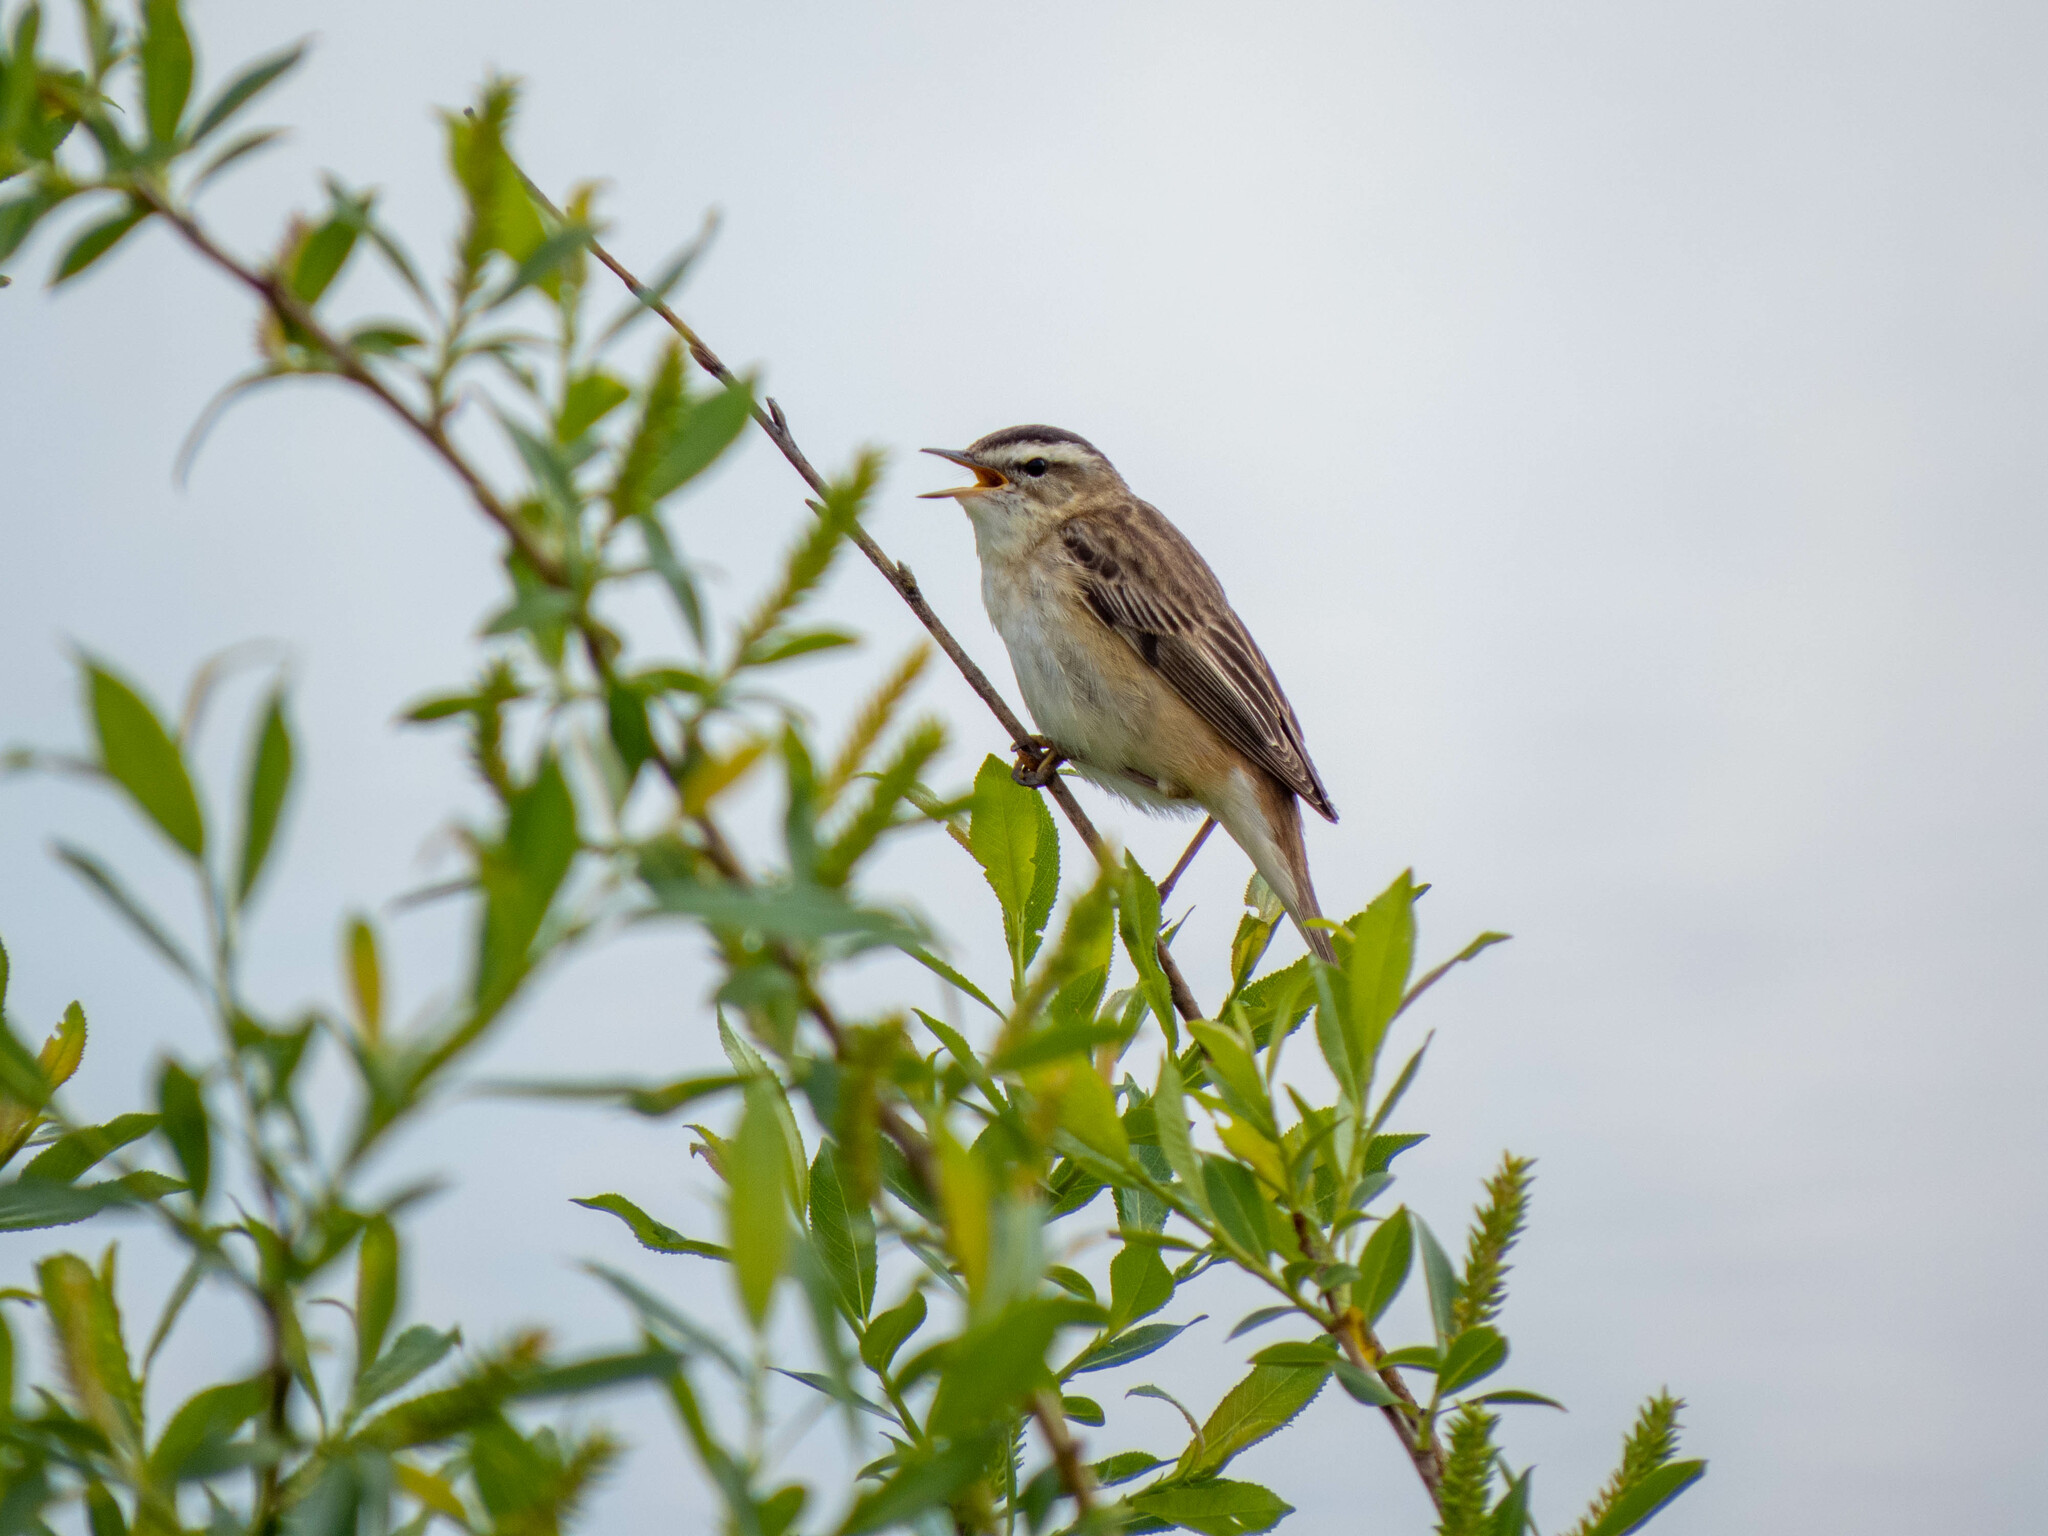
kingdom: Animalia
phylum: Chordata
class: Aves
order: Passeriformes
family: Acrocephalidae
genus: Acrocephalus
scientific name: Acrocephalus schoenobaenus
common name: Sedge warbler
